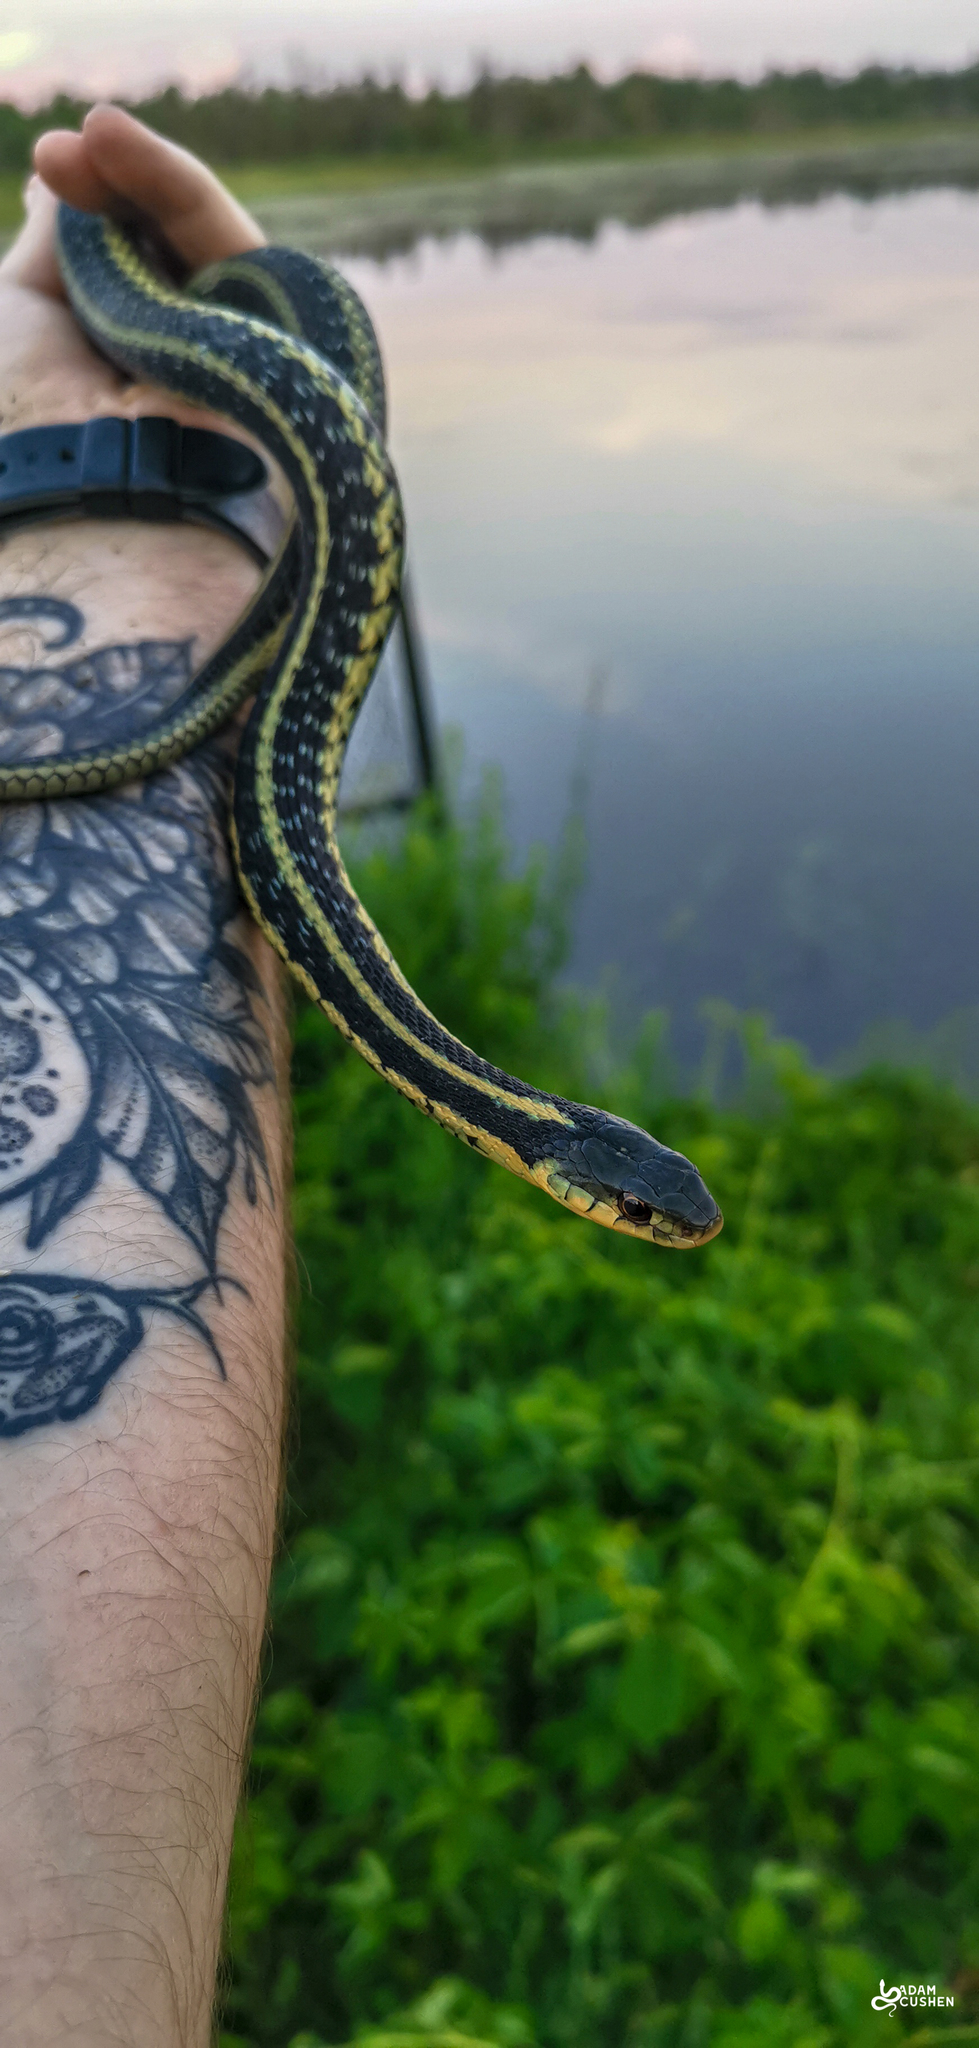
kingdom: Animalia
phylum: Chordata
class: Squamata
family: Colubridae
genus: Thamnophis
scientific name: Thamnophis sirtalis
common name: Common garter snake
